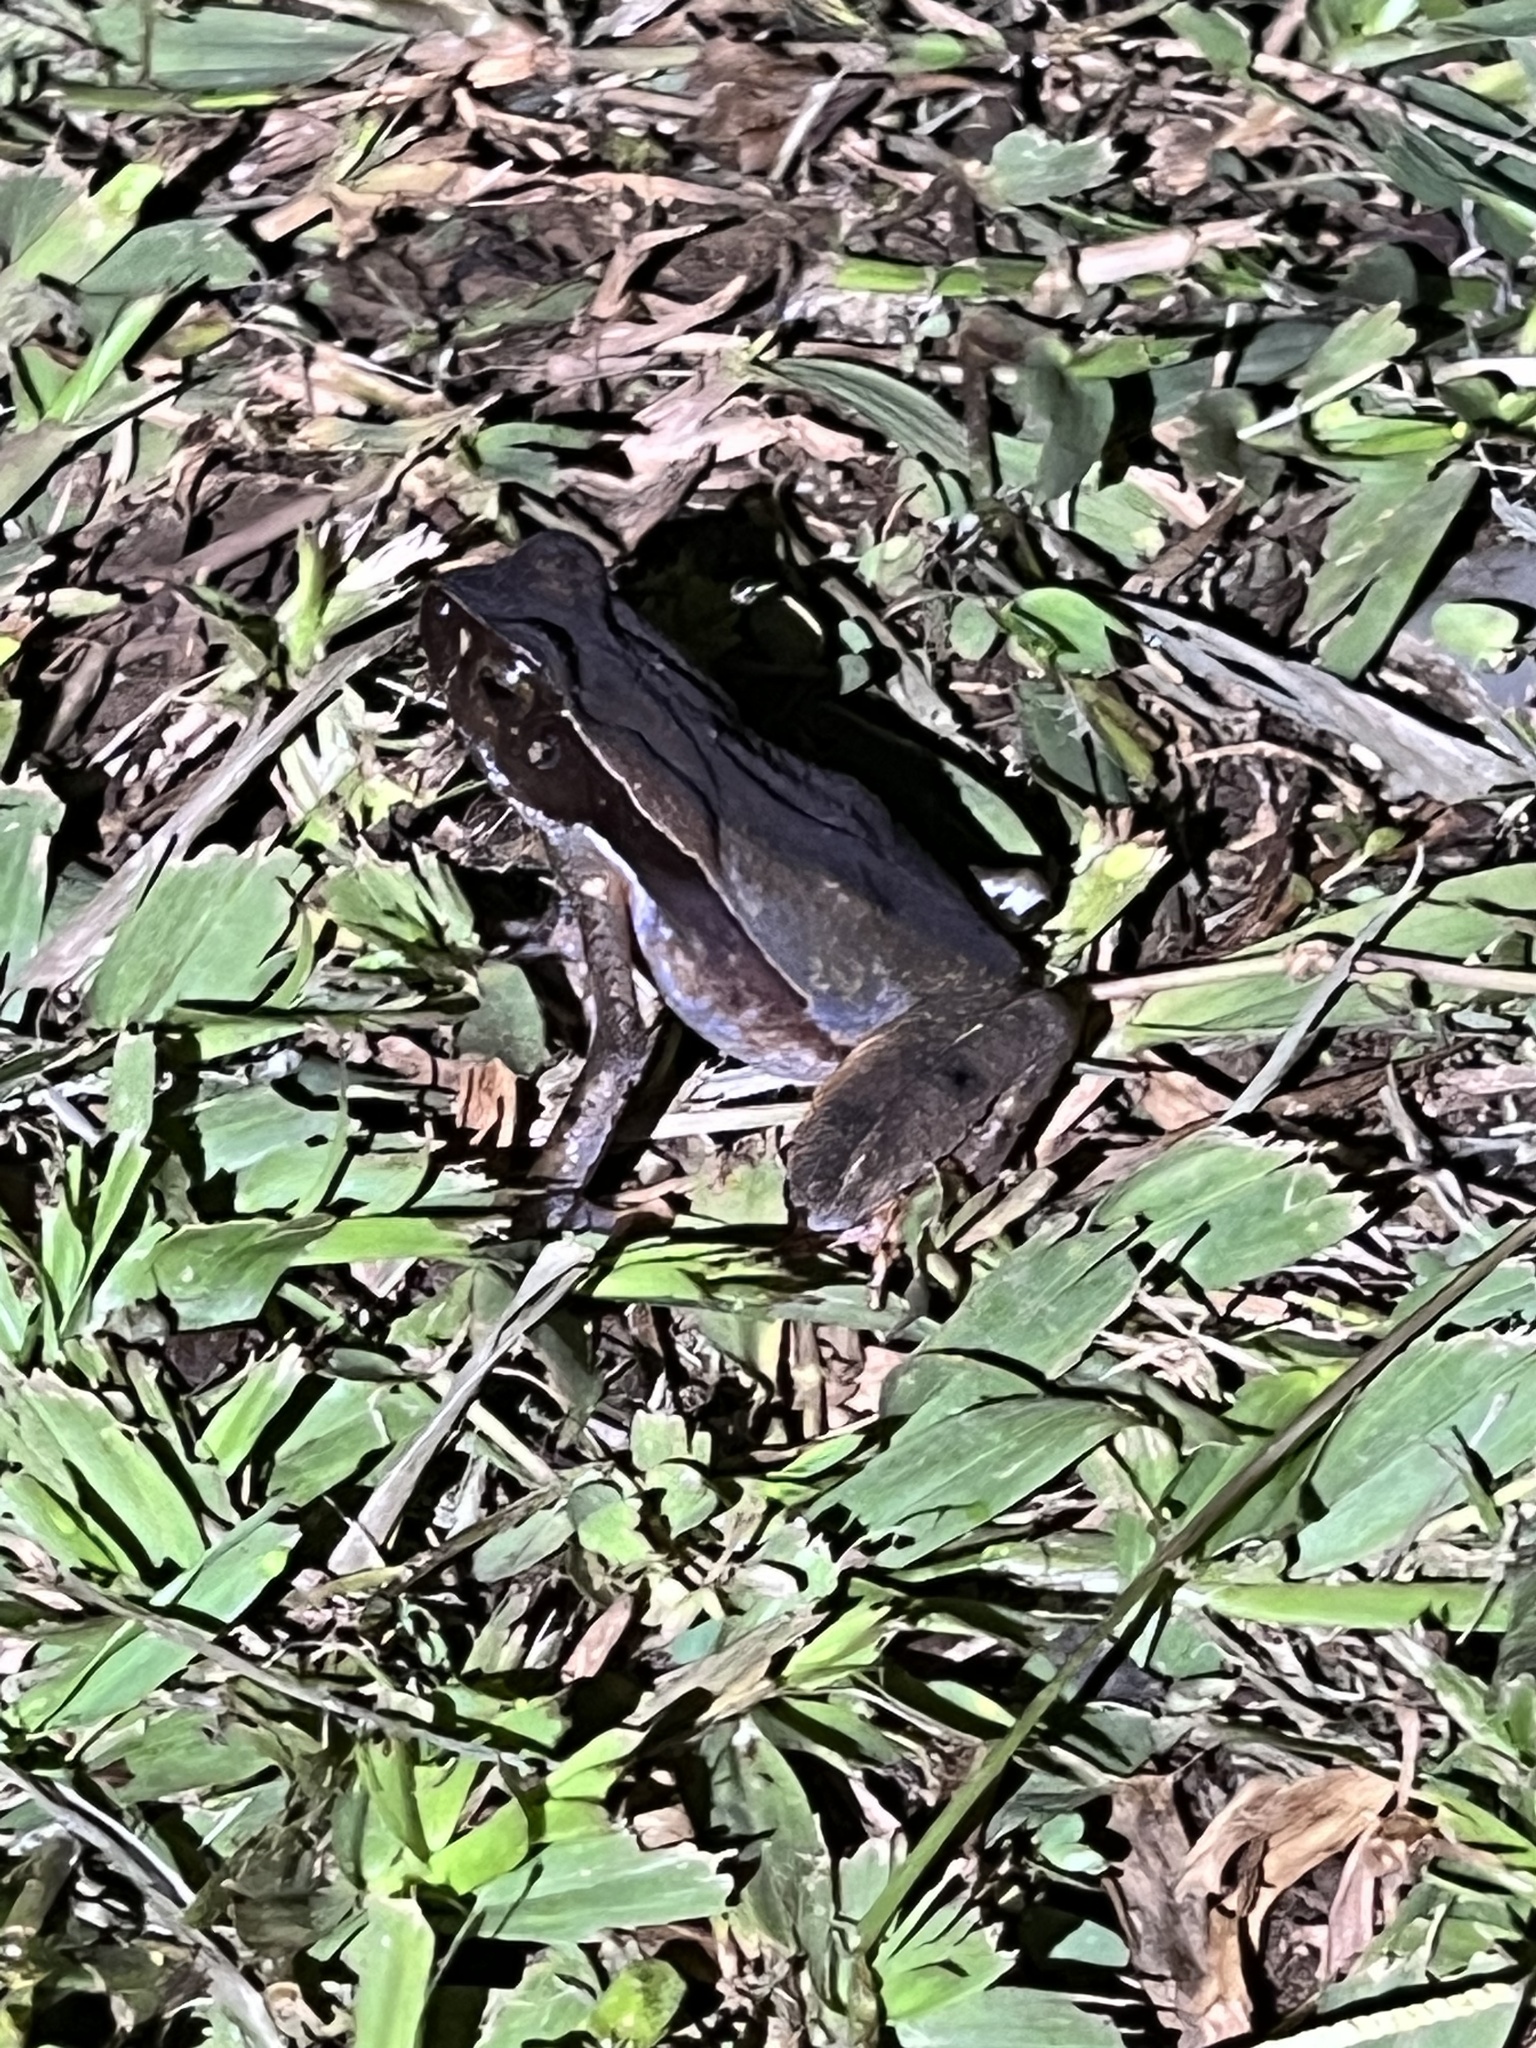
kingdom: Animalia
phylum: Chordata
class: Amphibia
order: Anura
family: Bufonidae
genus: Rhaebo
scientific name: Rhaebo haematiticus
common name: Truando toad
